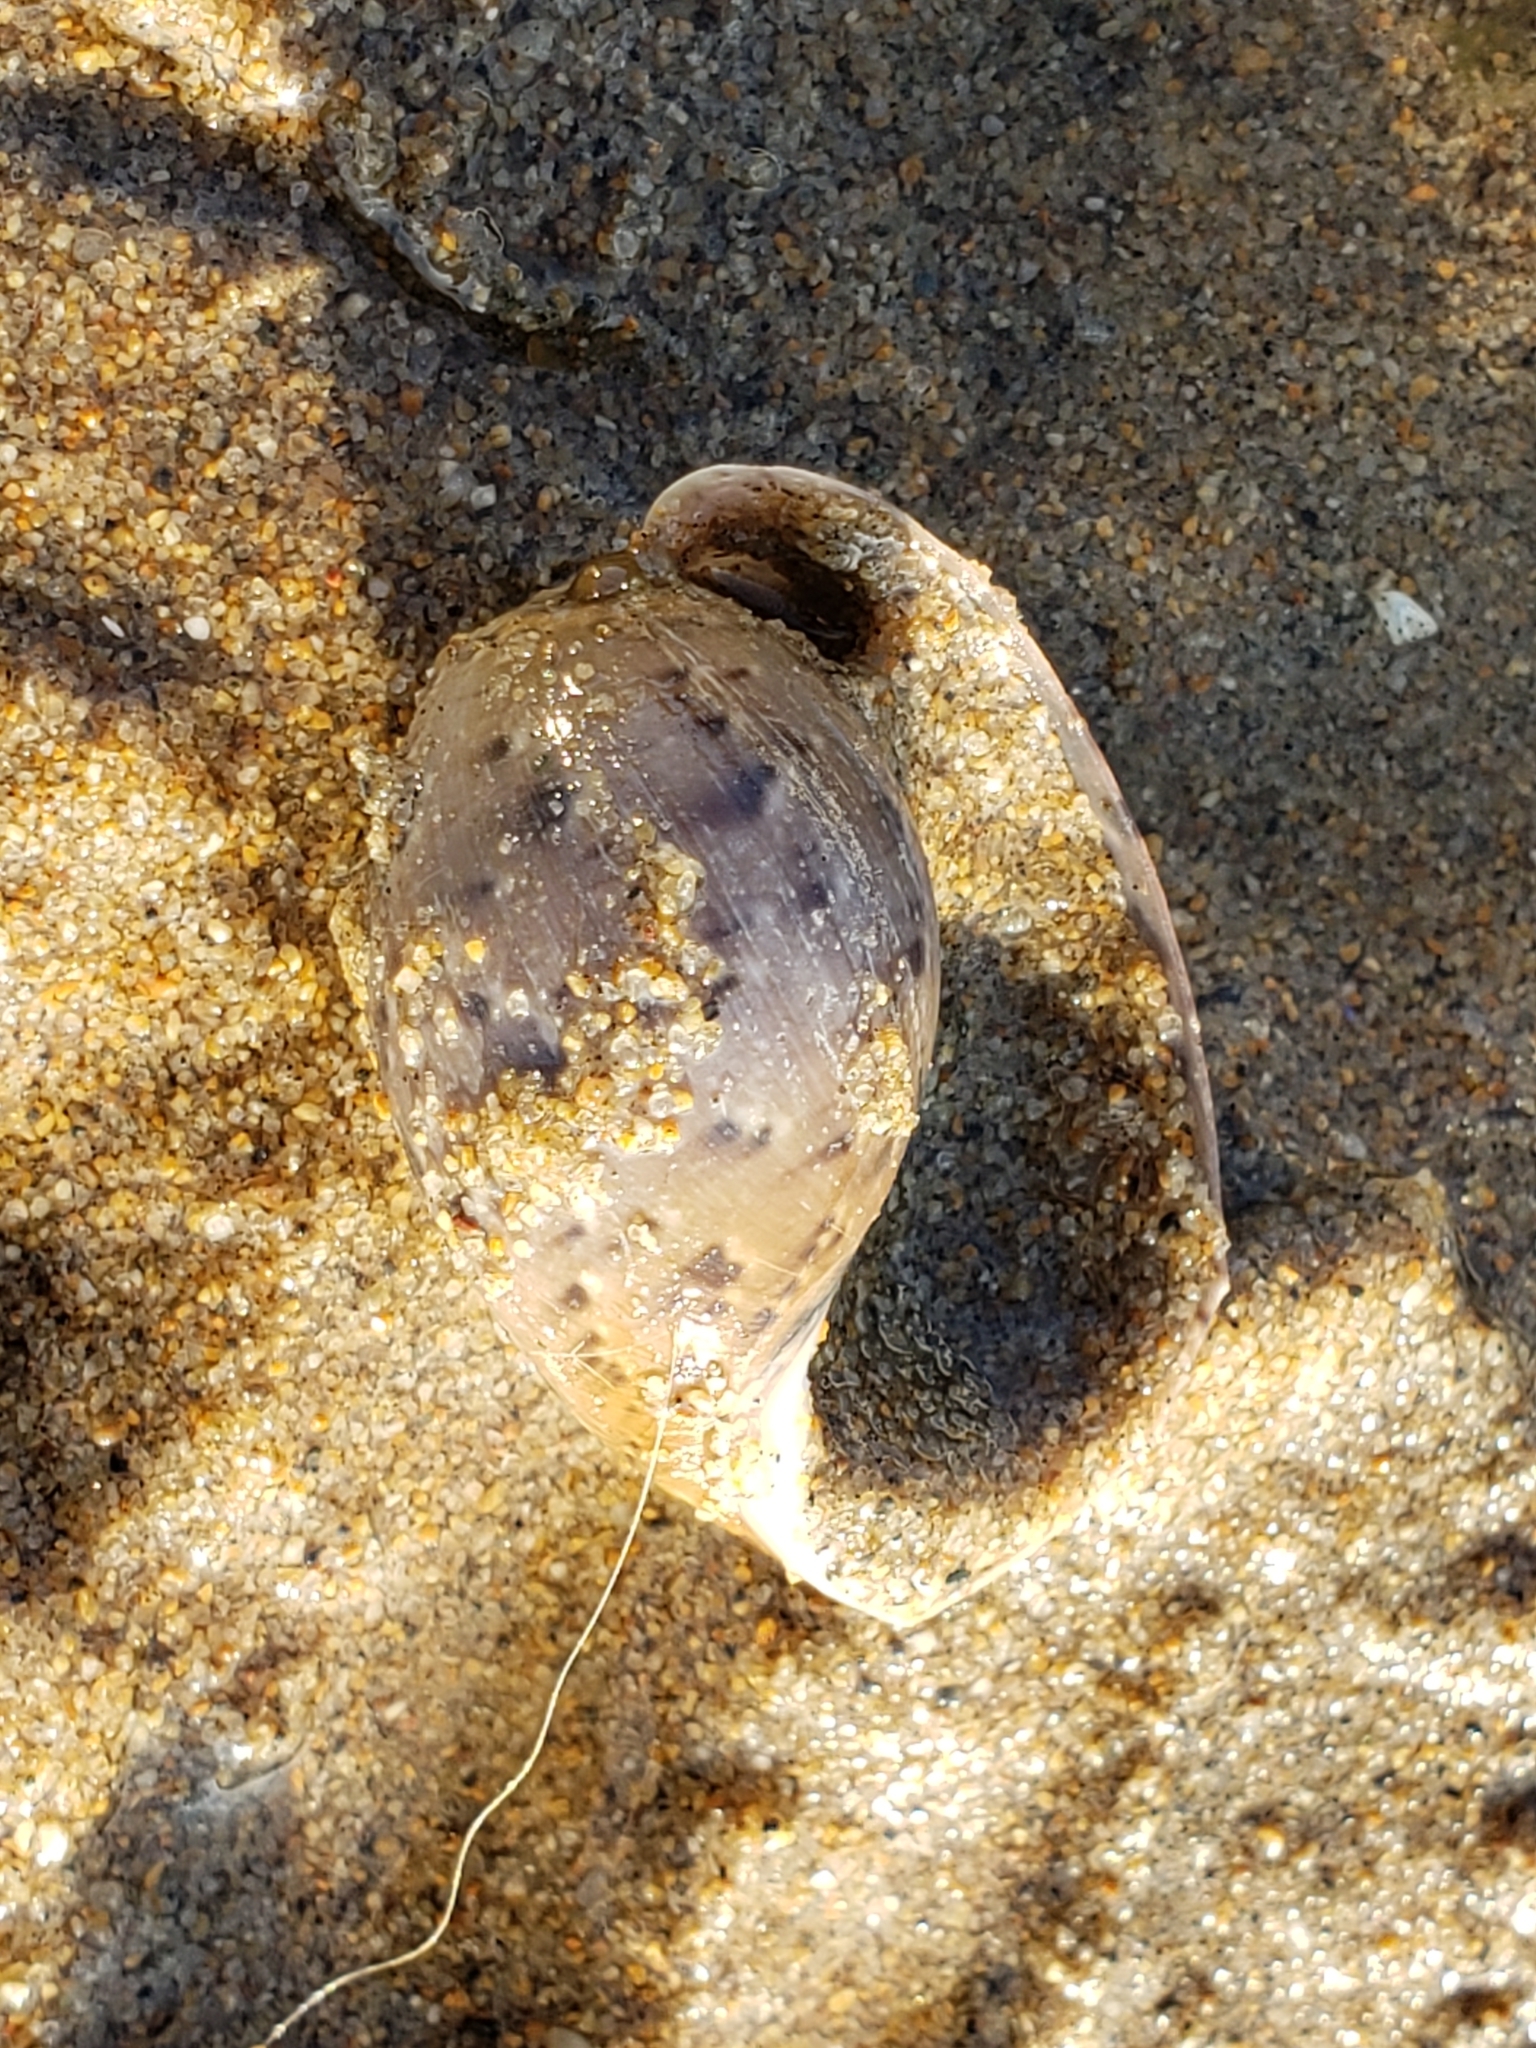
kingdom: Animalia
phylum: Mollusca
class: Gastropoda
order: Cephalaspidea
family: Bullidae
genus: Bulla
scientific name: Bulla gouldiana
